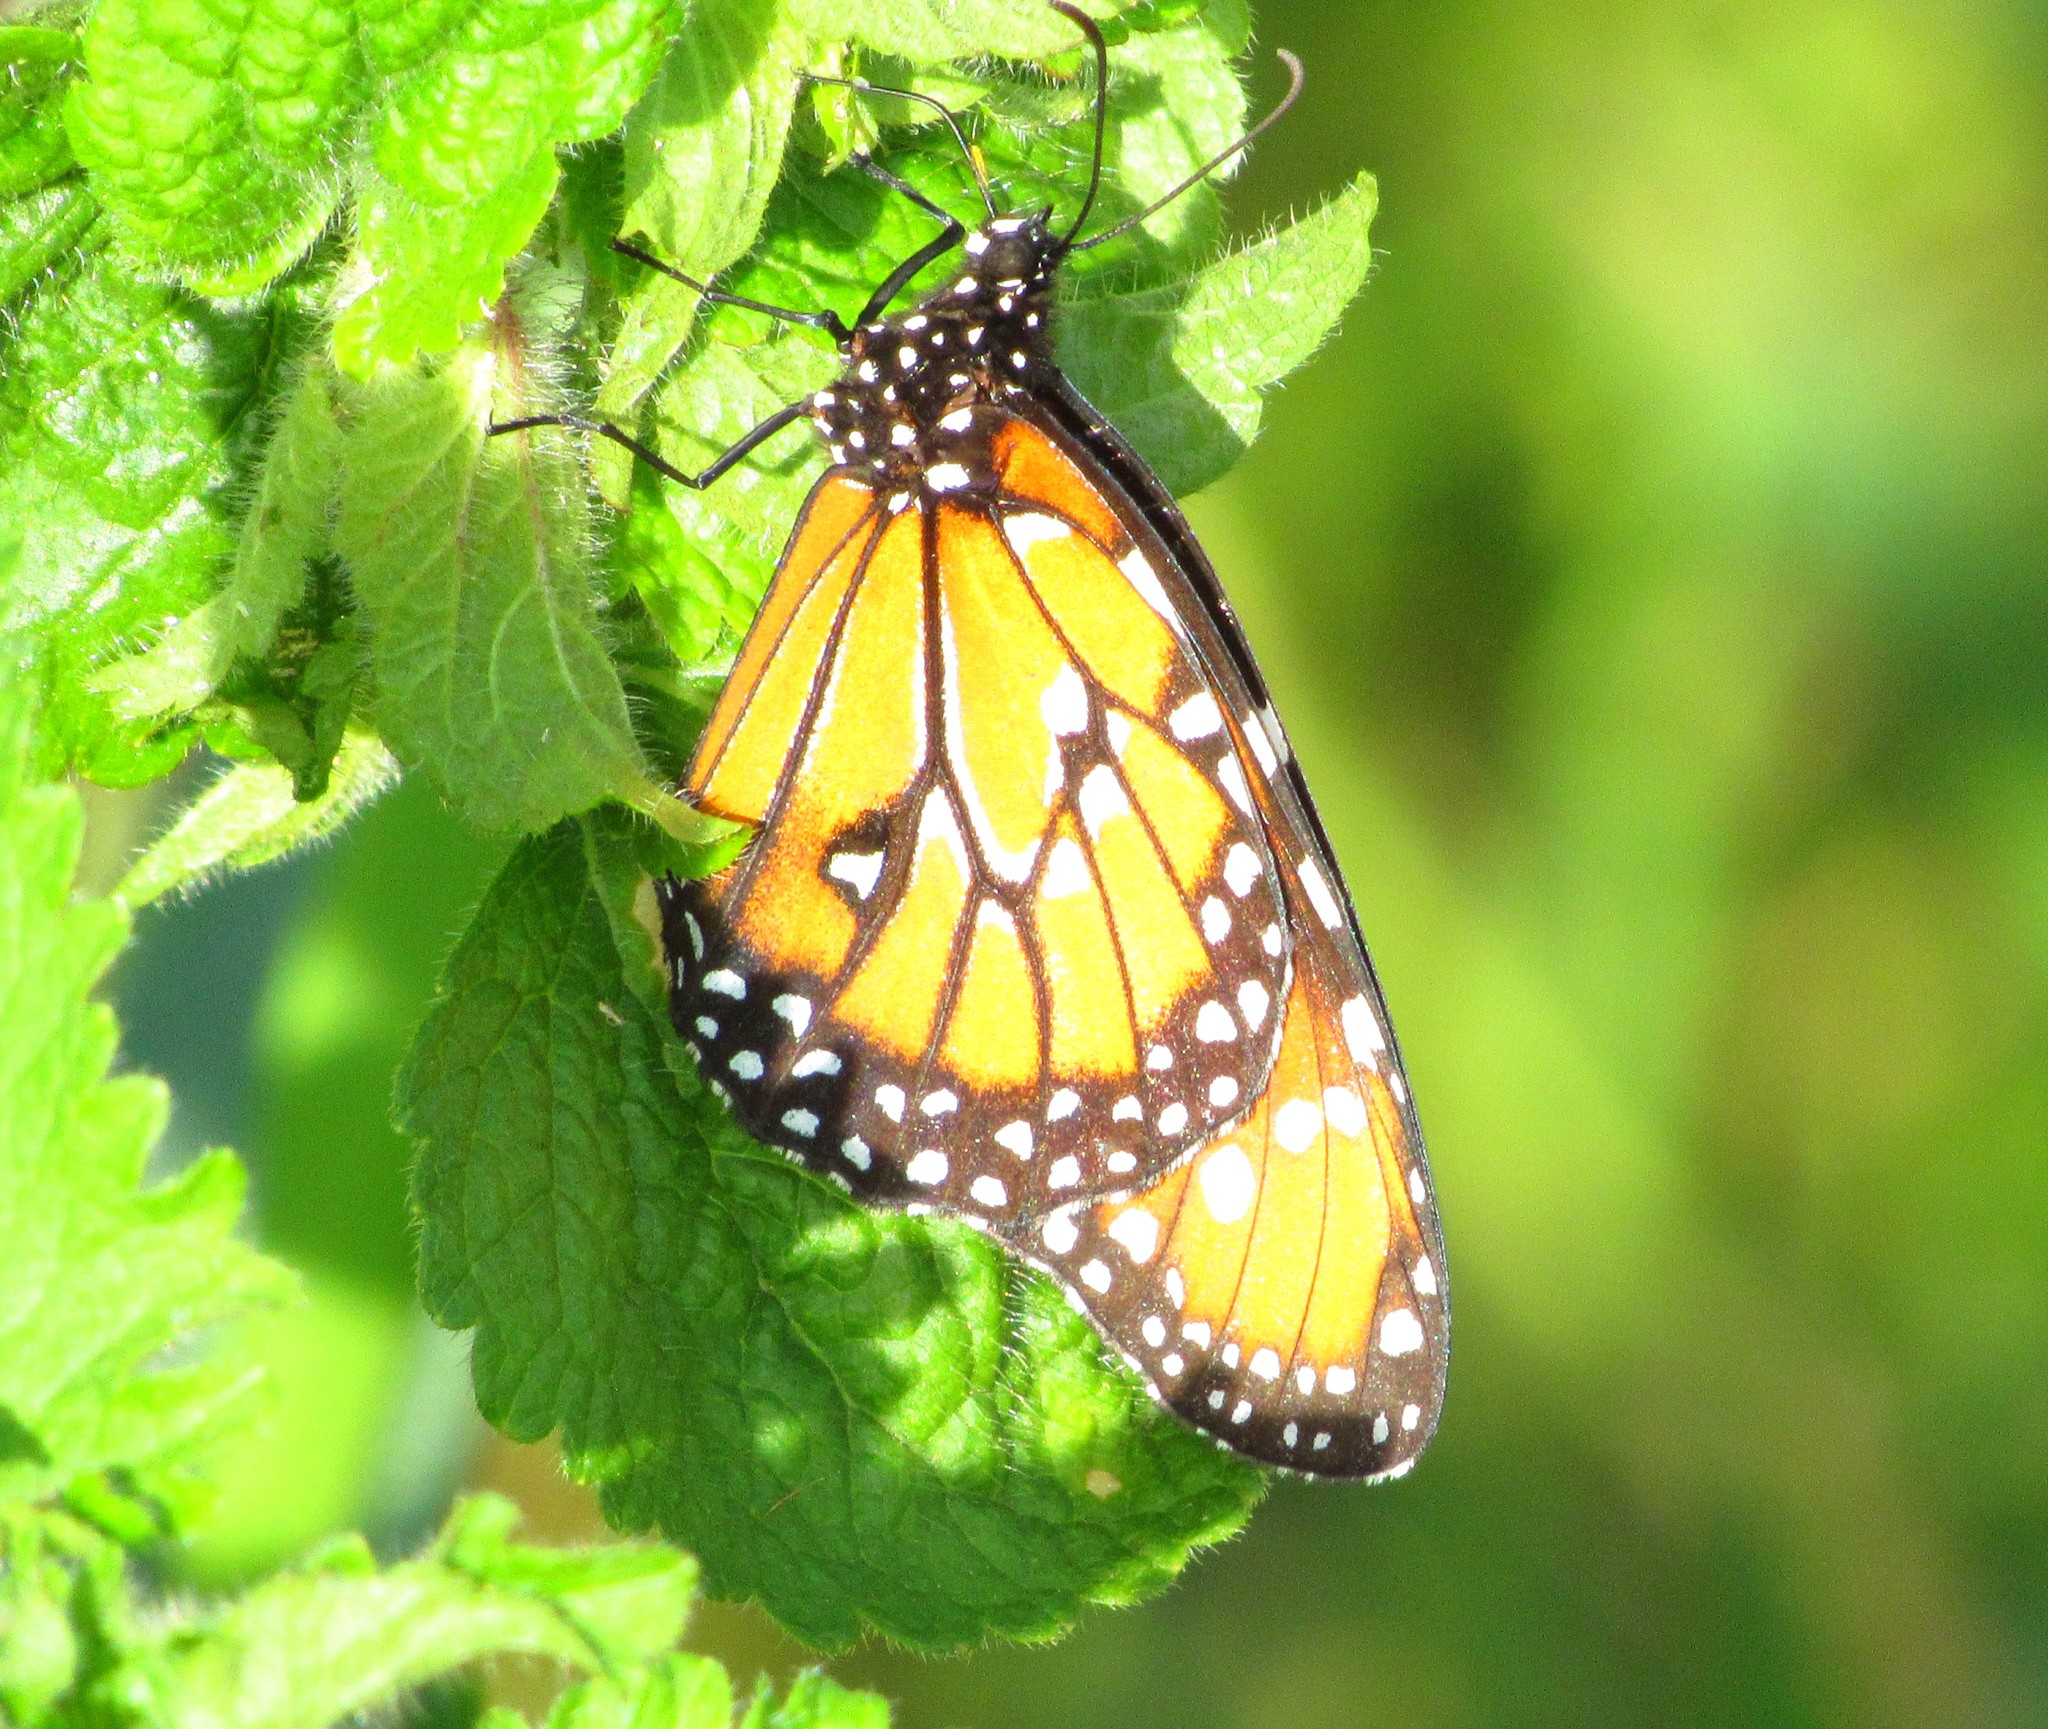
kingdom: Animalia
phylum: Arthropoda
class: Insecta
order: Lepidoptera
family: Nymphalidae
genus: Danaus
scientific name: Danaus gilippus
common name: Queen
